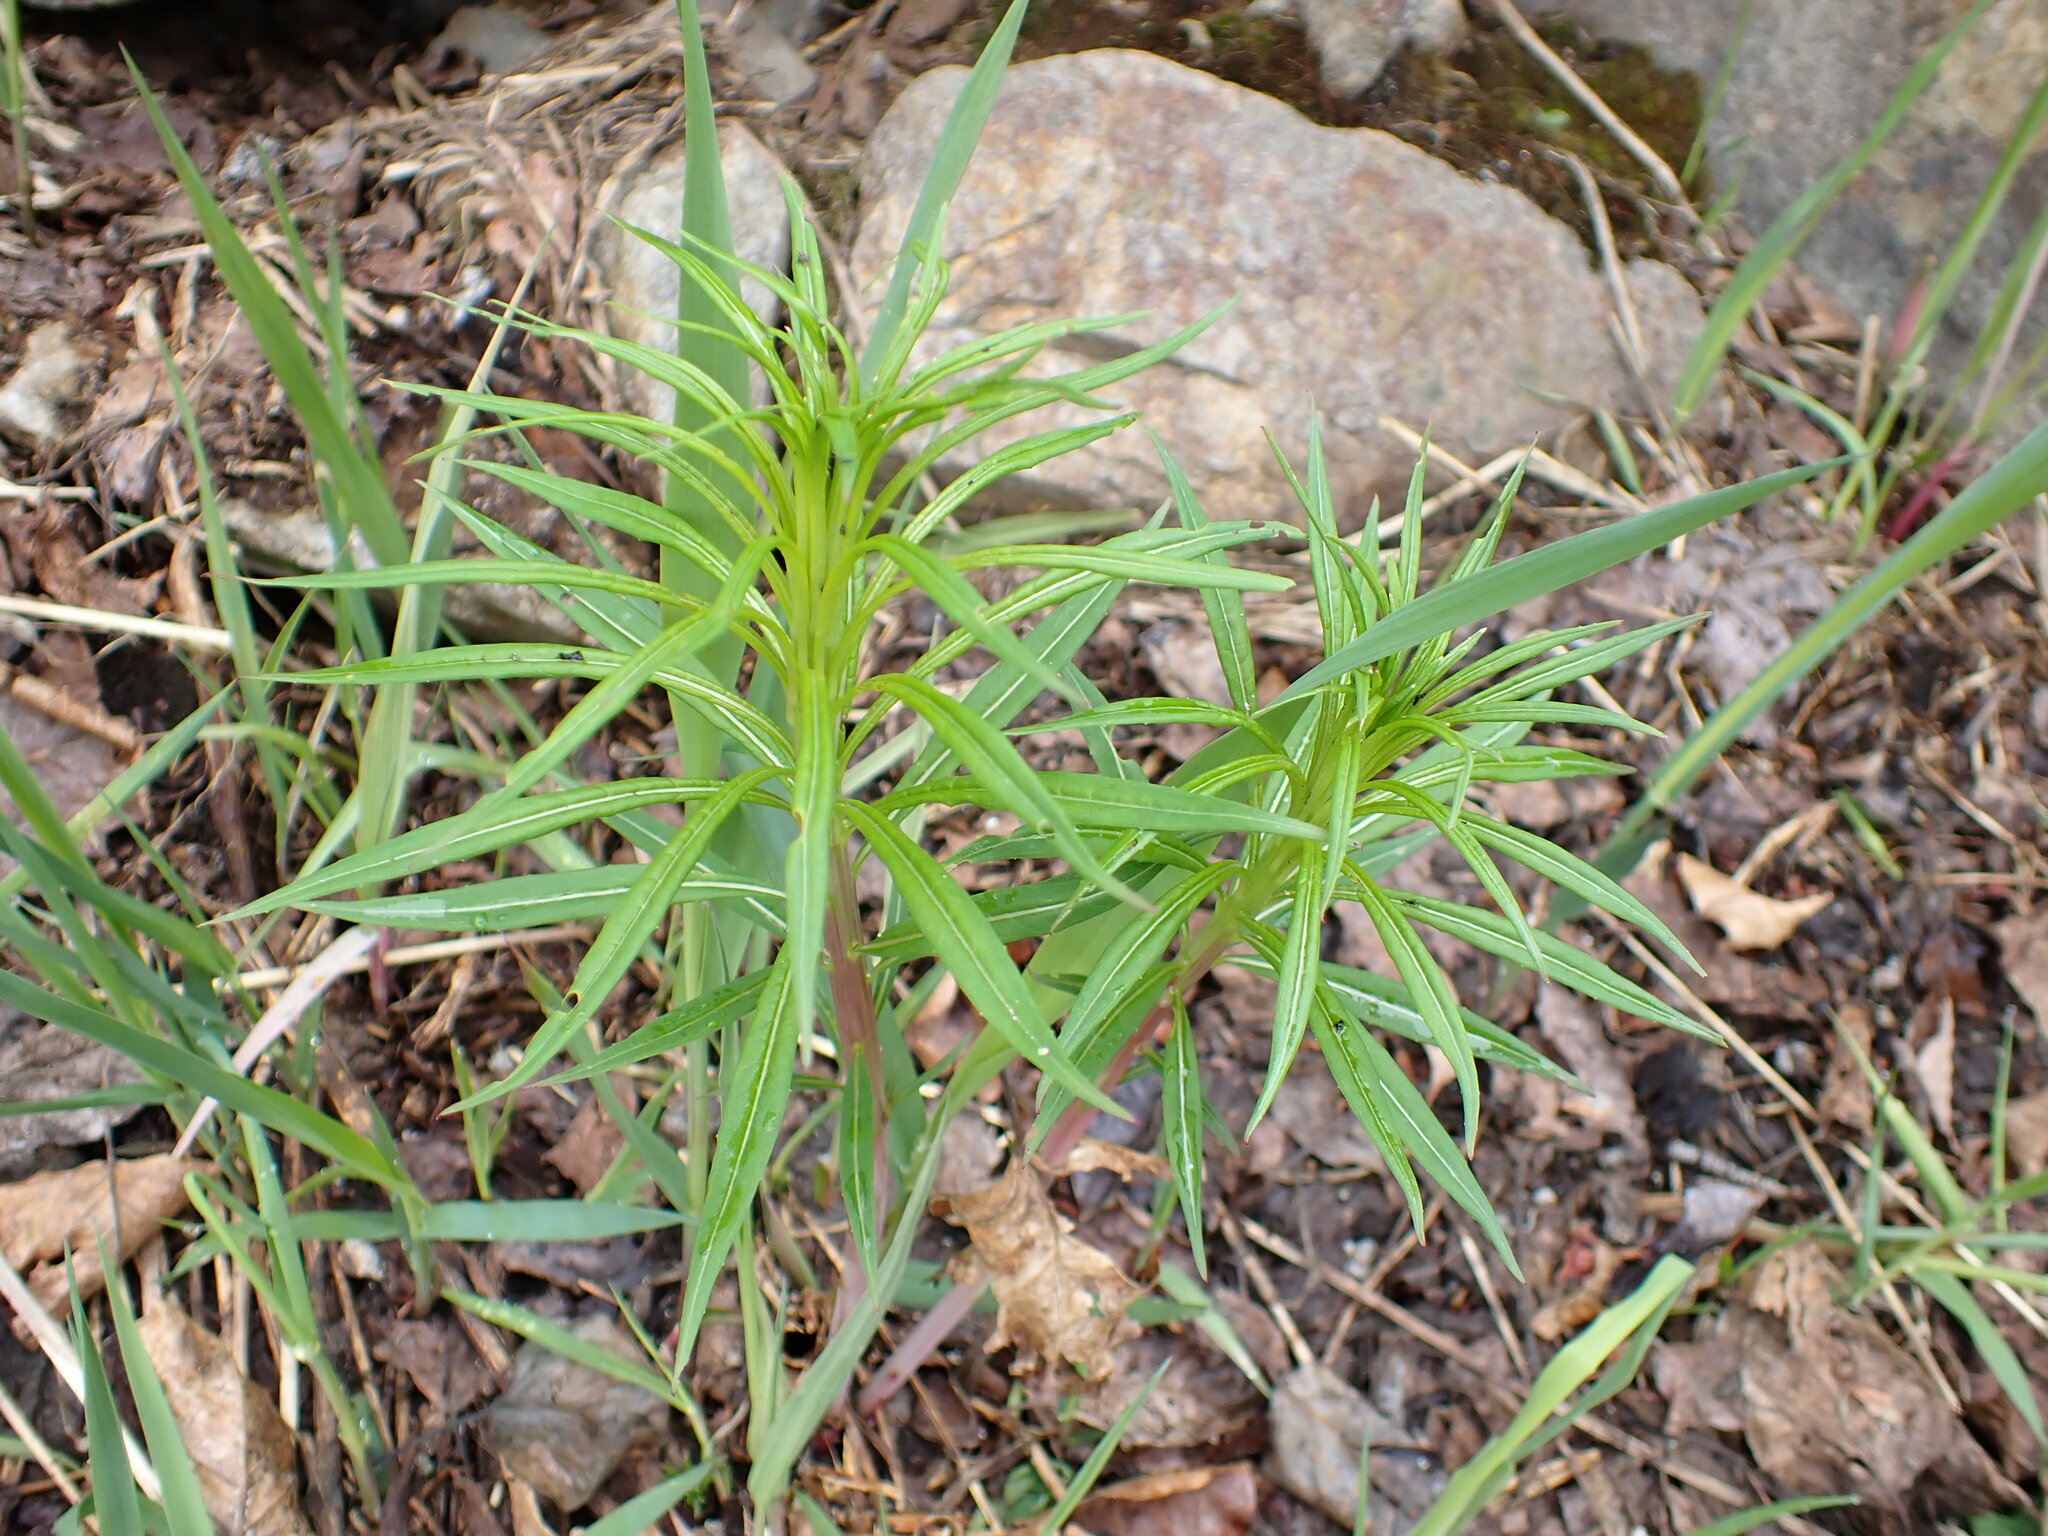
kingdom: Plantae
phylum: Tracheophyta
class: Magnoliopsida
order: Myrtales
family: Onagraceae
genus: Chamaenerion
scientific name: Chamaenerion angustifolium
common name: Fireweed
